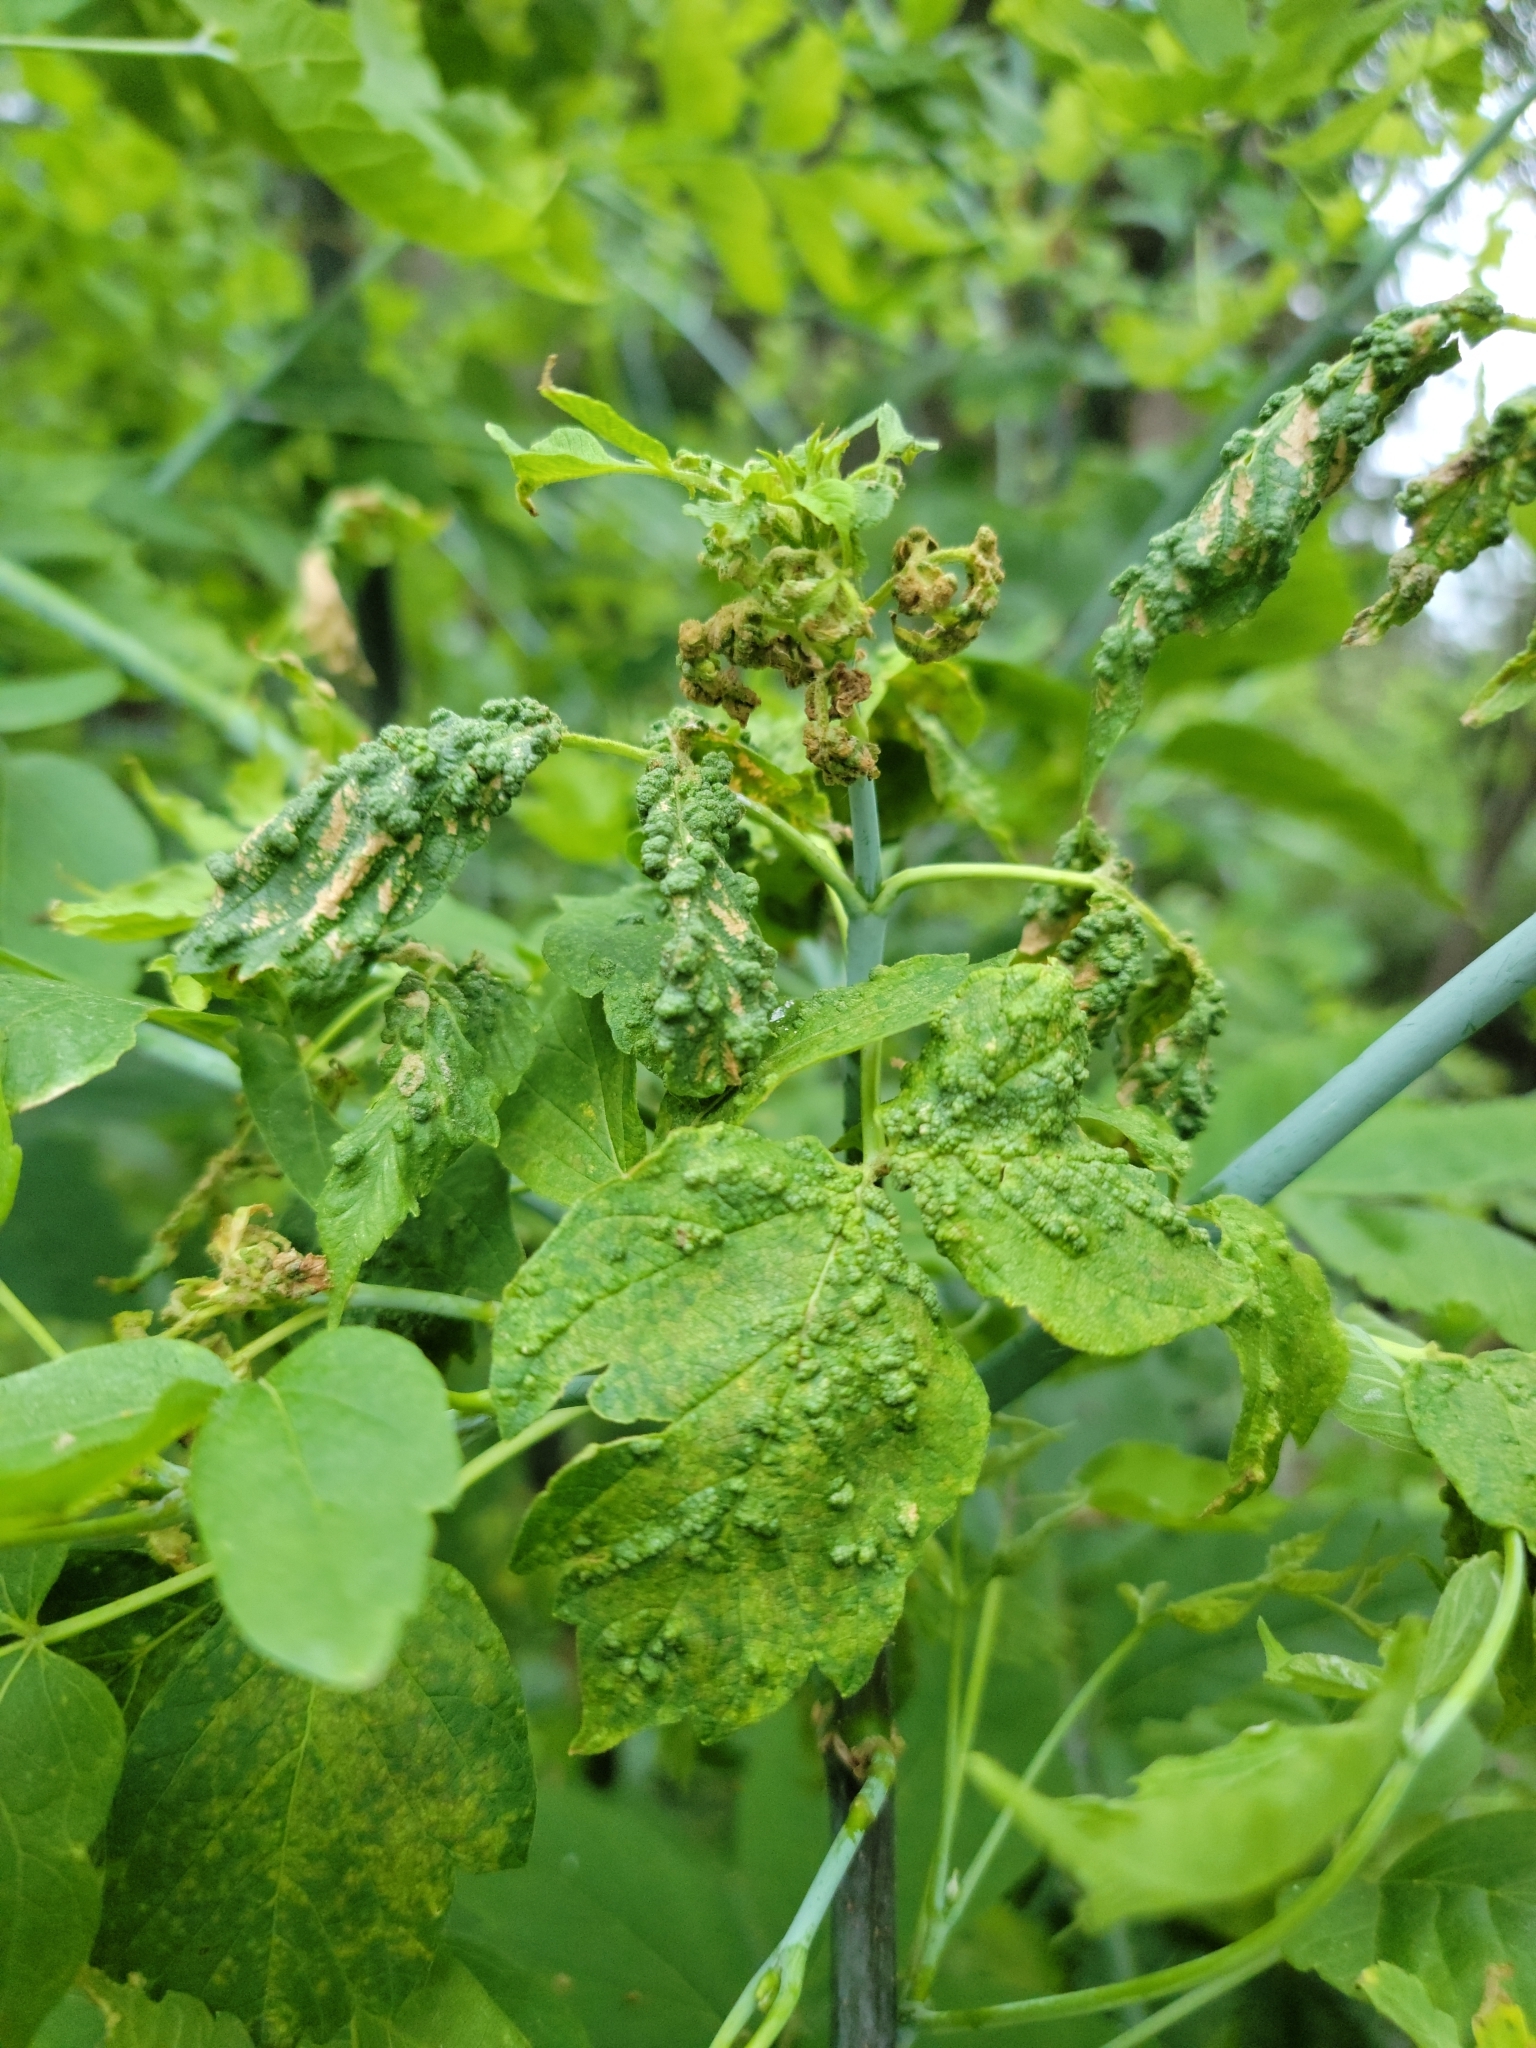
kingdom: Animalia
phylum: Arthropoda
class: Arachnida
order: Trombidiformes
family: Eriophyidae
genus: Aceria
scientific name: Aceria
